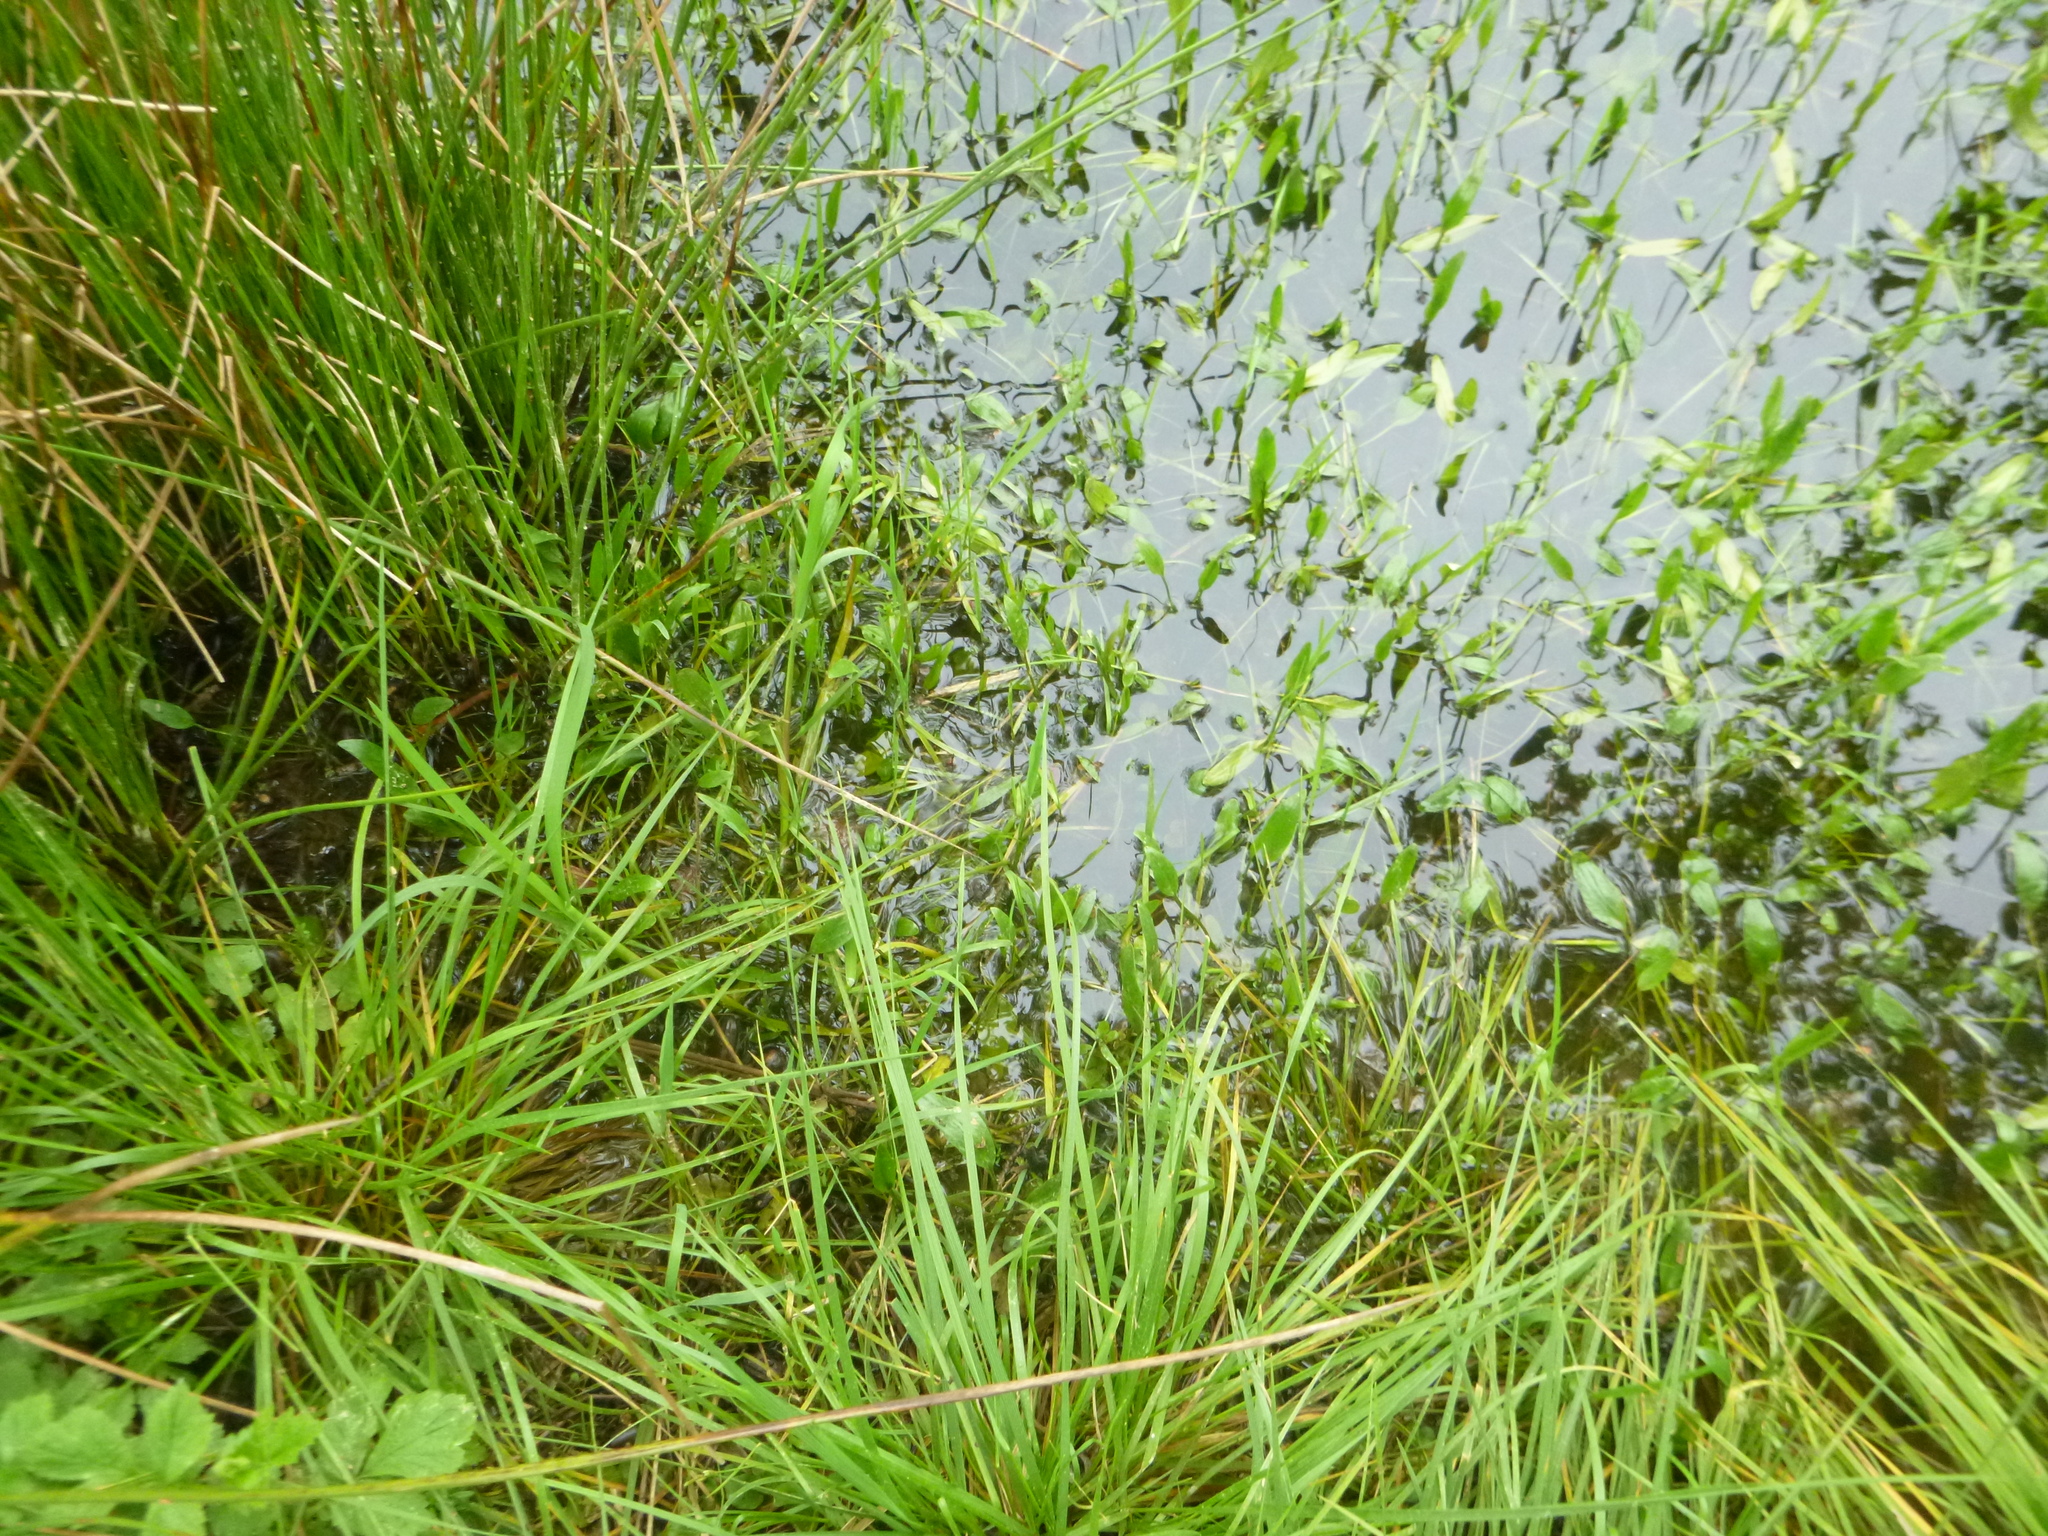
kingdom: Plantae
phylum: Tracheophyta
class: Magnoliopsida
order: Ranunculales
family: Ranunculaceae
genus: Ranunculus
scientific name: Ranunculus flammula
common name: Lesser spearwort
